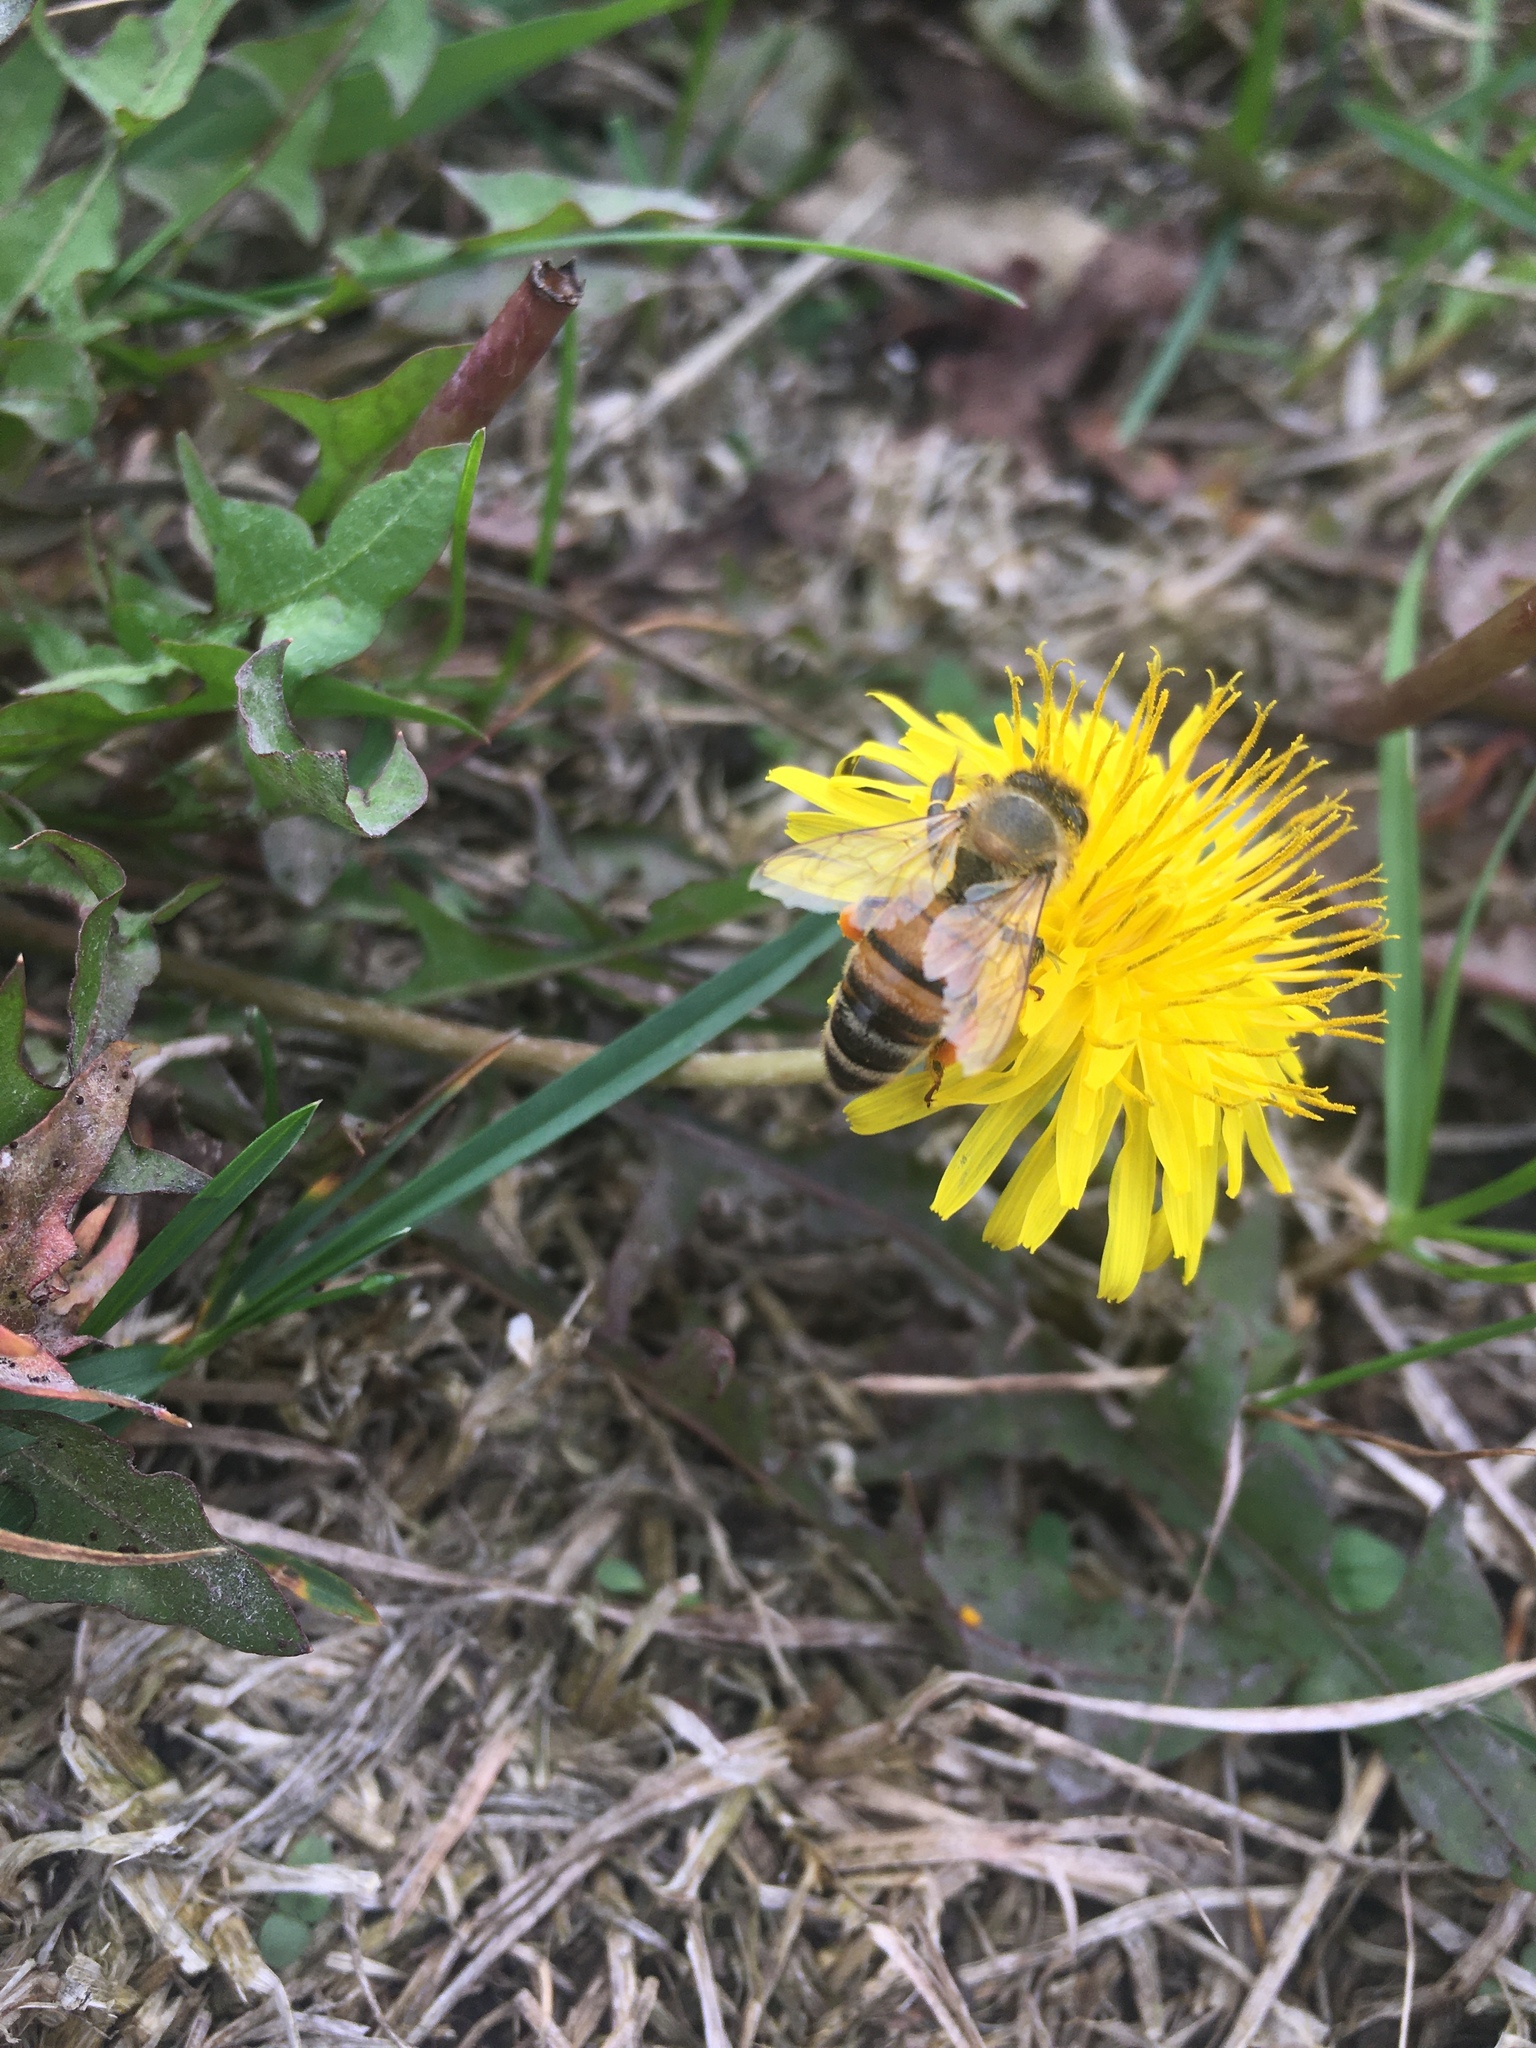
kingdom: Animalia
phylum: Arthropoda
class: Insecta
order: Hymenoptera
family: Apidae
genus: Apis
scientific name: Apis mellifera
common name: Honey bee
